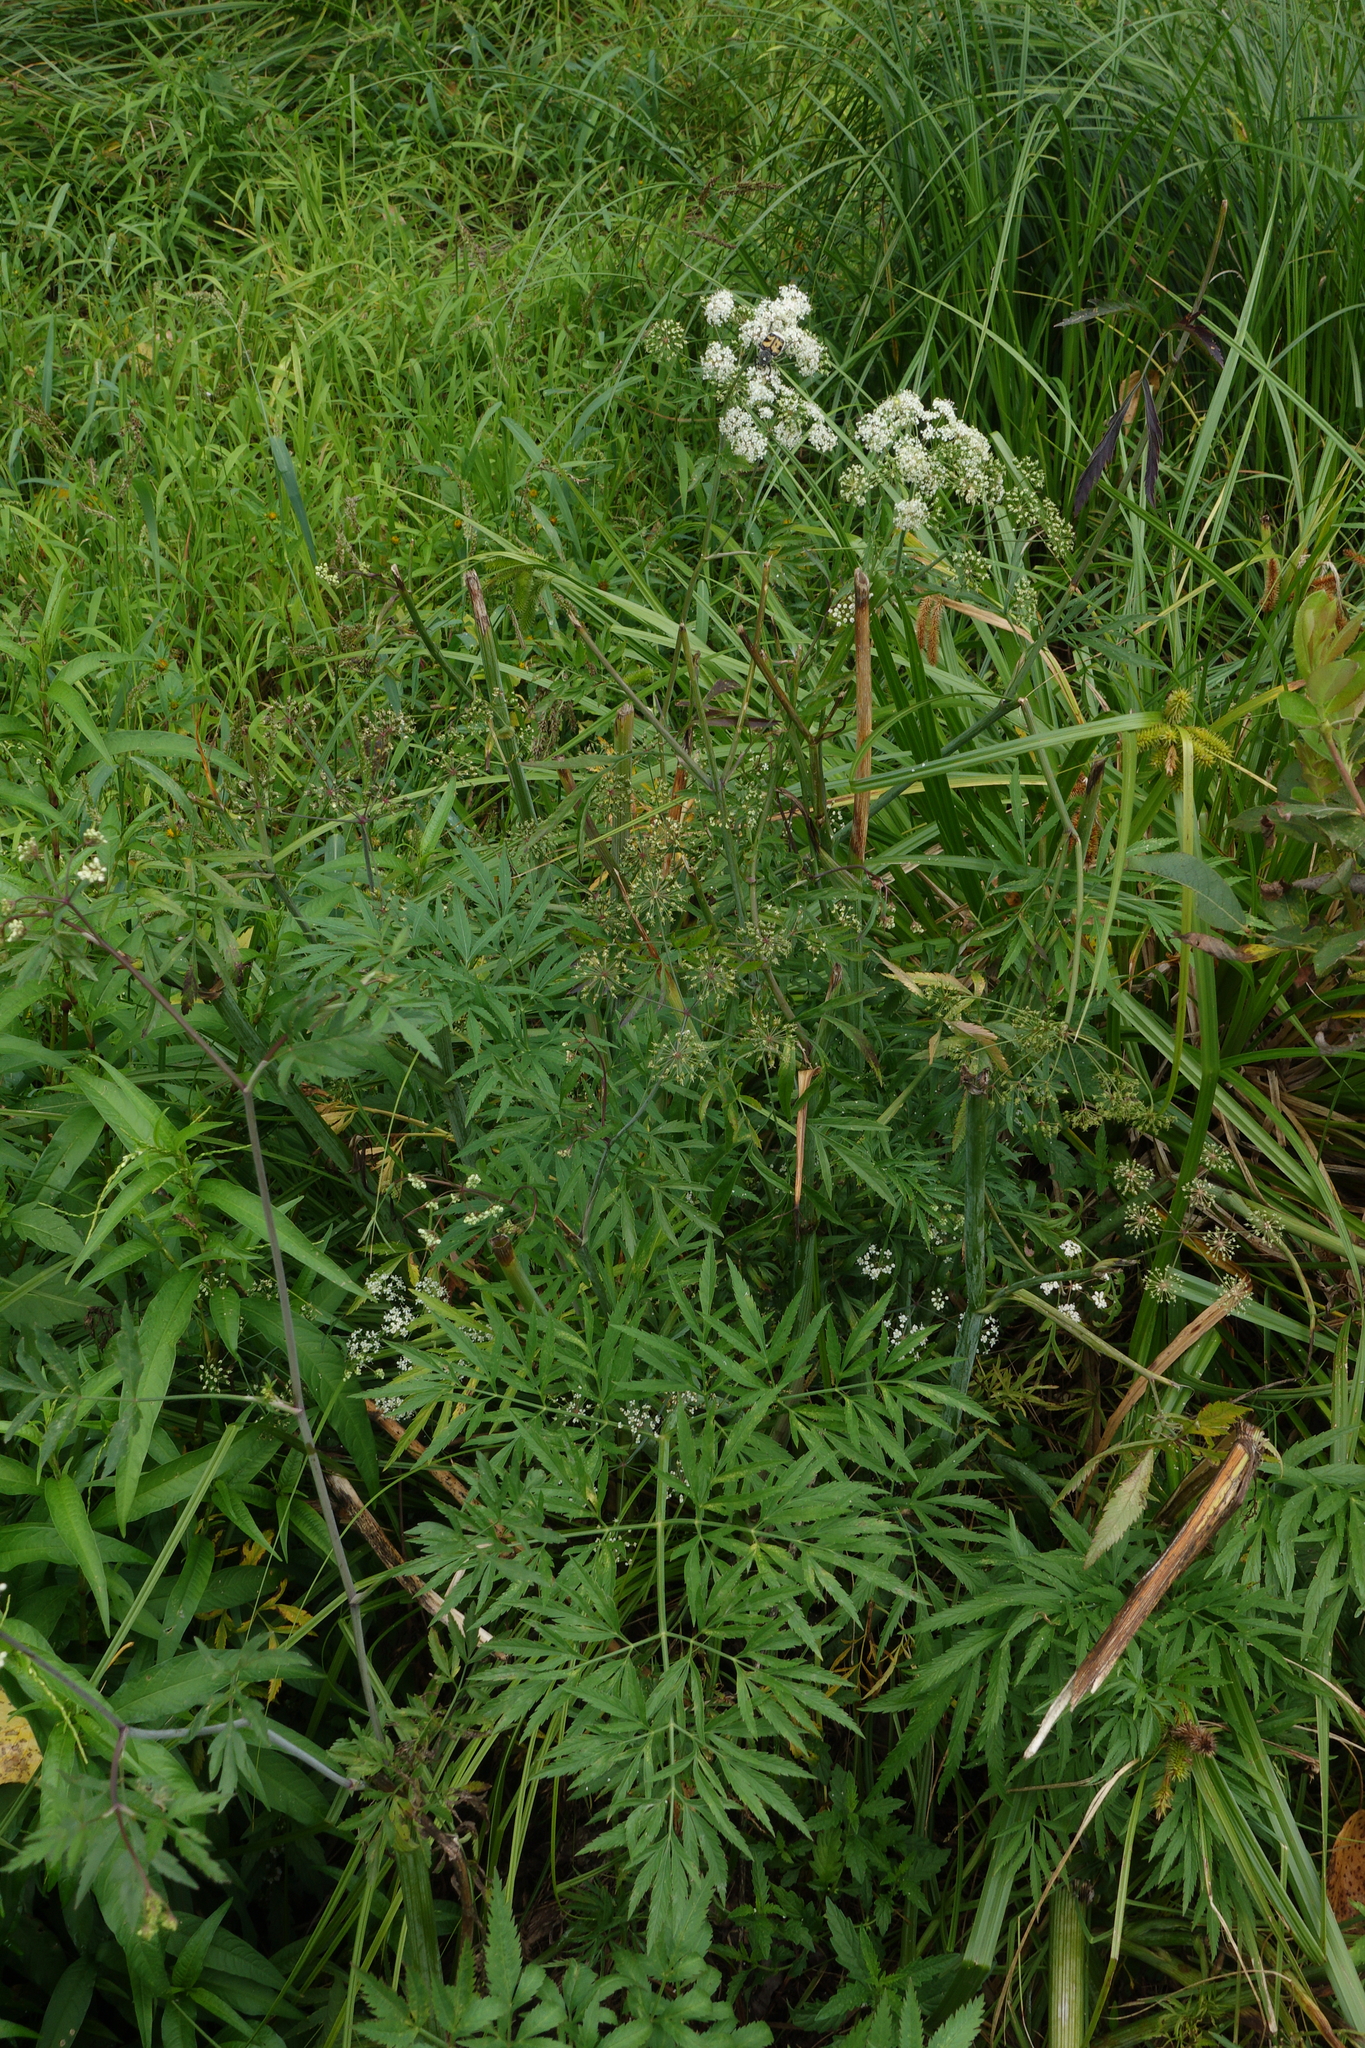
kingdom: Plantae
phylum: Tracheophyta
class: Magnoliopsida
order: Apiales
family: Apiaceae
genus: Cicuta
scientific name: Cicuta virosa
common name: Cowbane
